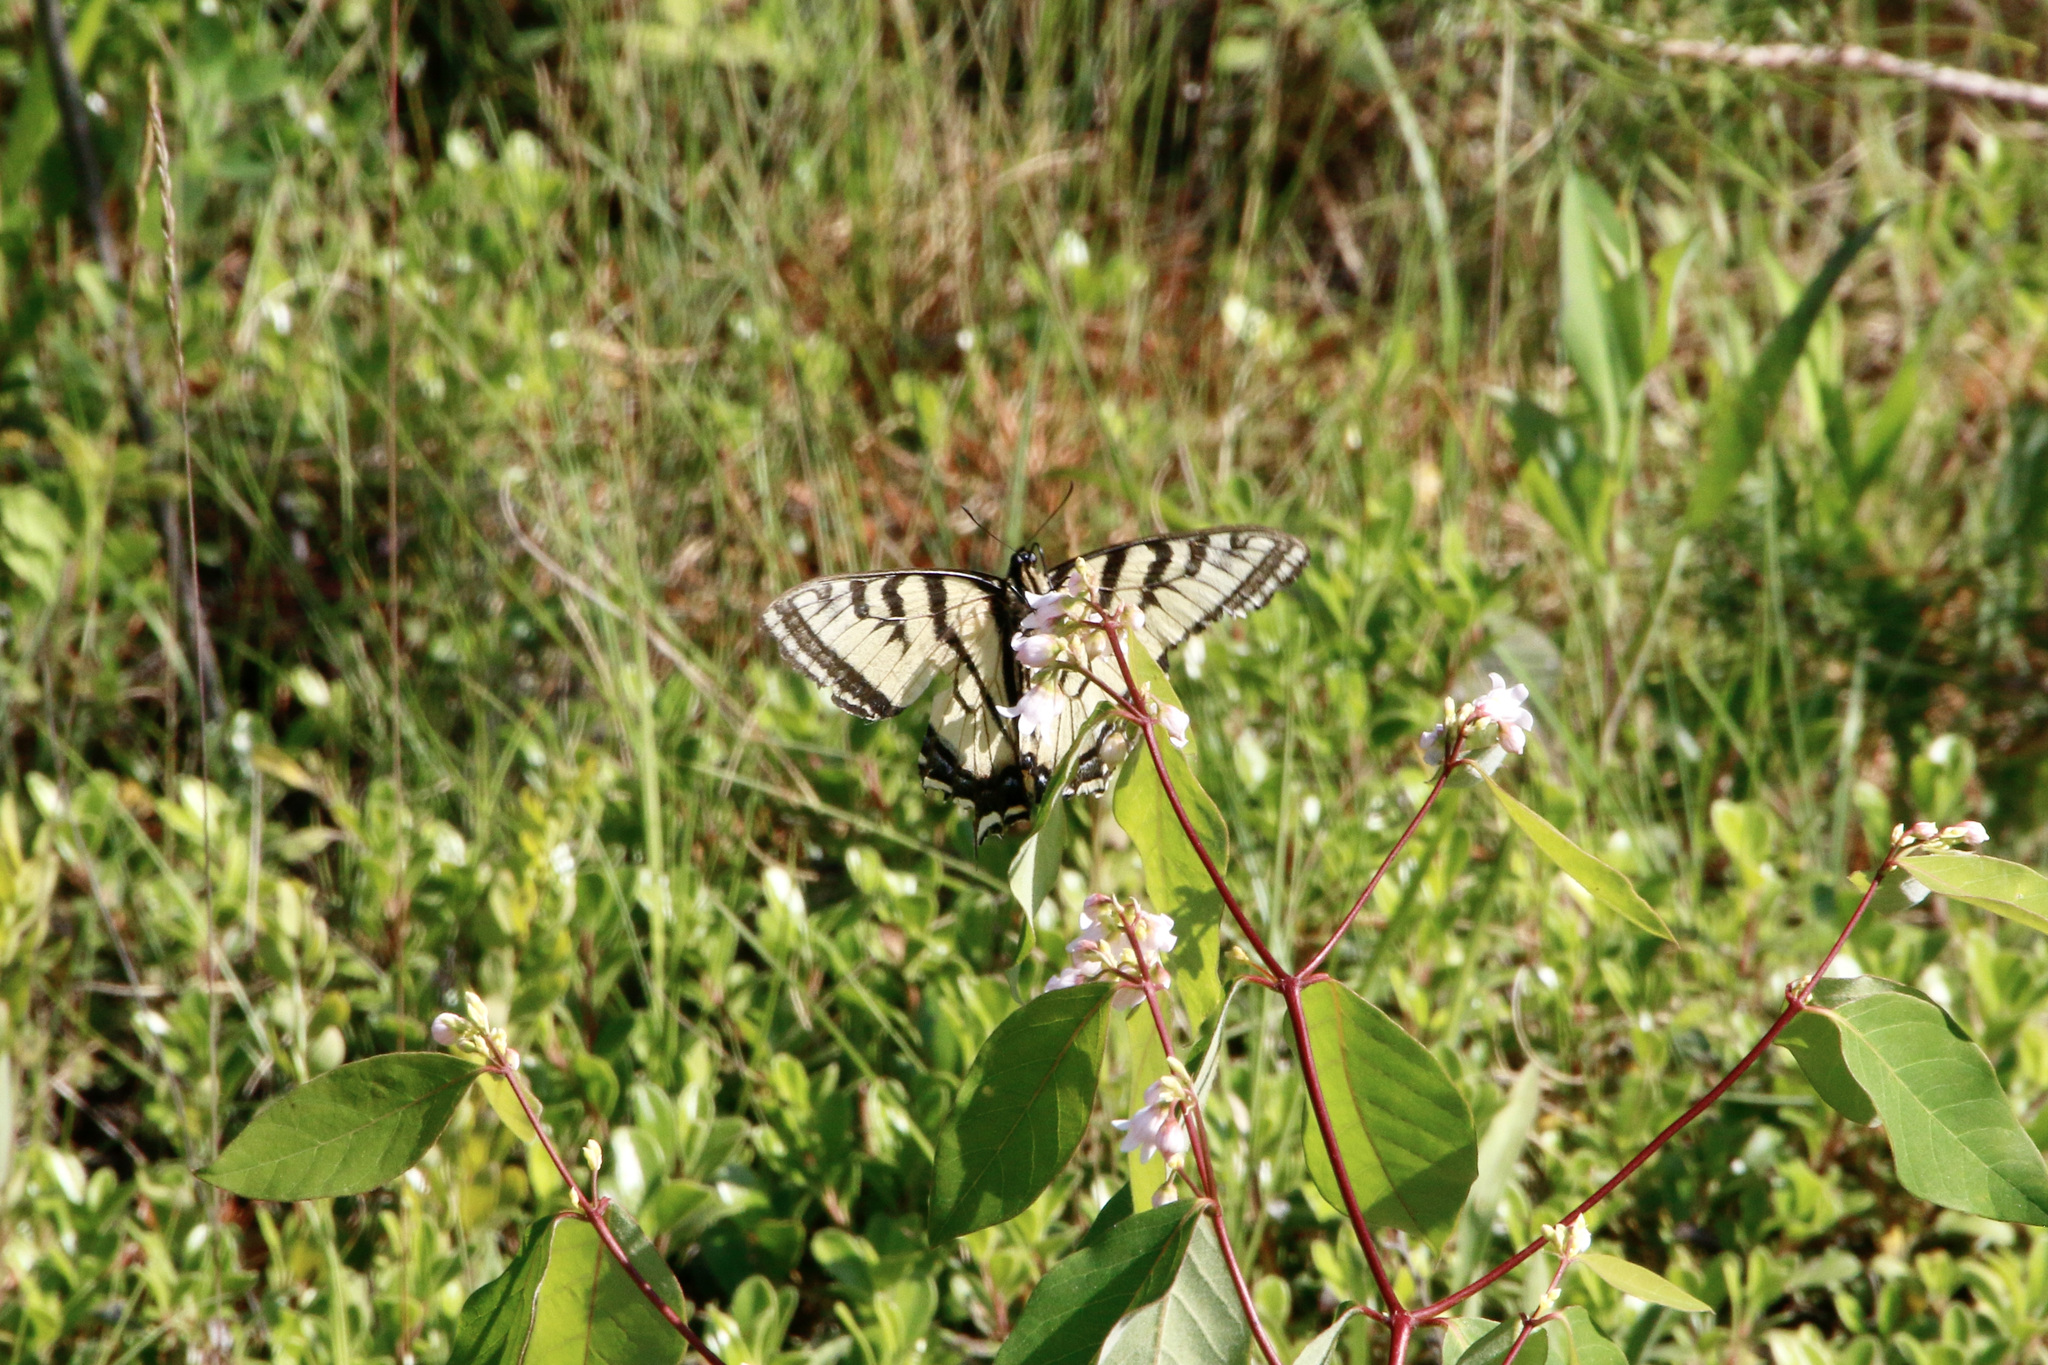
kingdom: Animalia
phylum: Arthropoda
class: Insecta
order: Lepidoptera
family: Papilionidae
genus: Papilio
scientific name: Papilio canadensis
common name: Canadian tiger swallowtail
